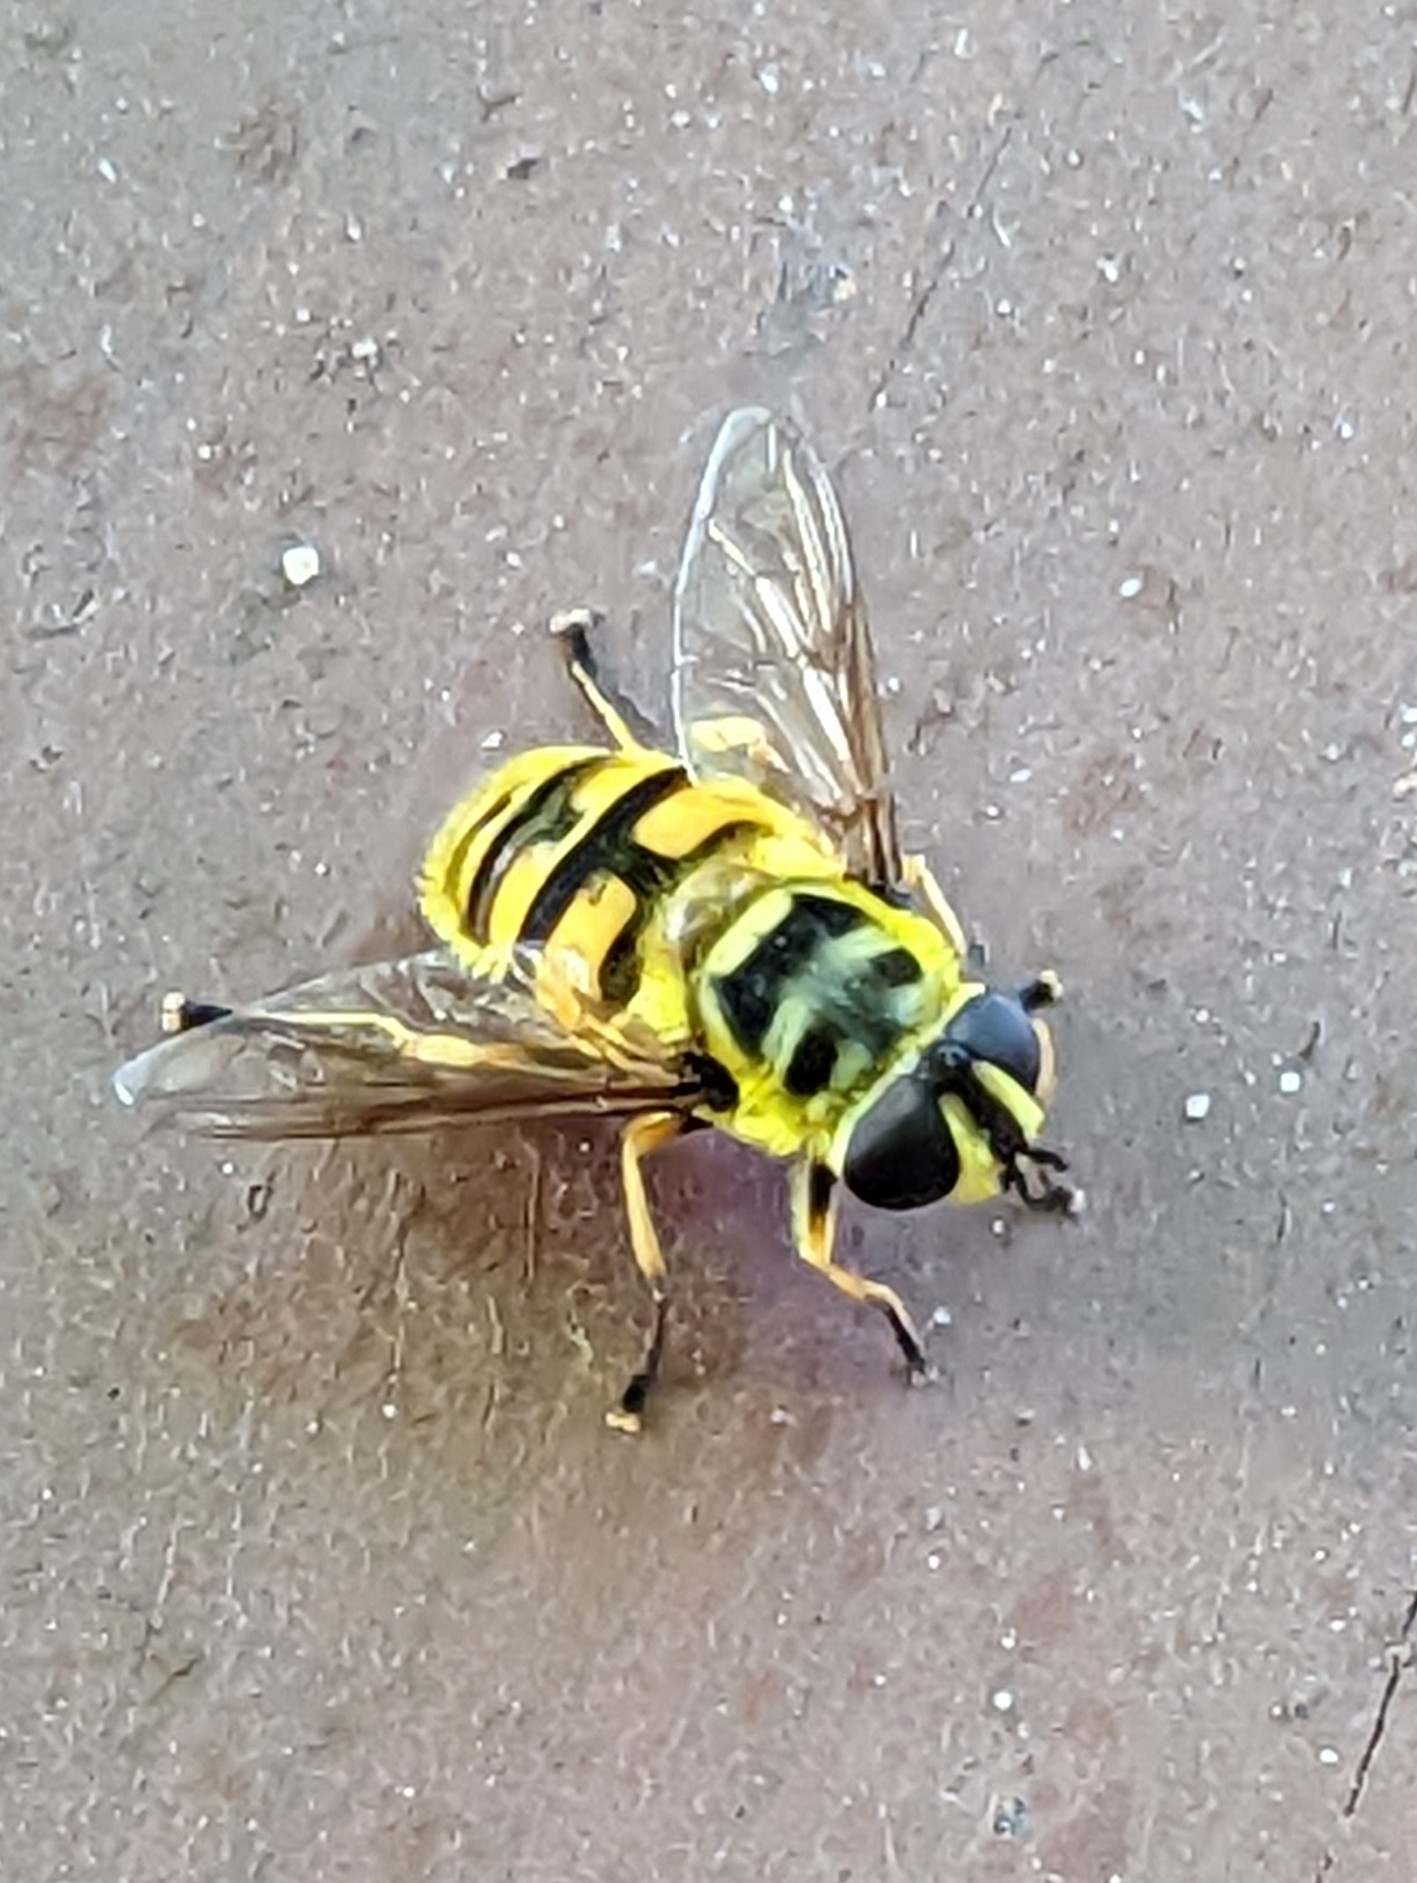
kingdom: Animalia
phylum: Arthropoda
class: Insecta
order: Diptera
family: Syrphidae
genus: Myathropa
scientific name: Myathropa florea
